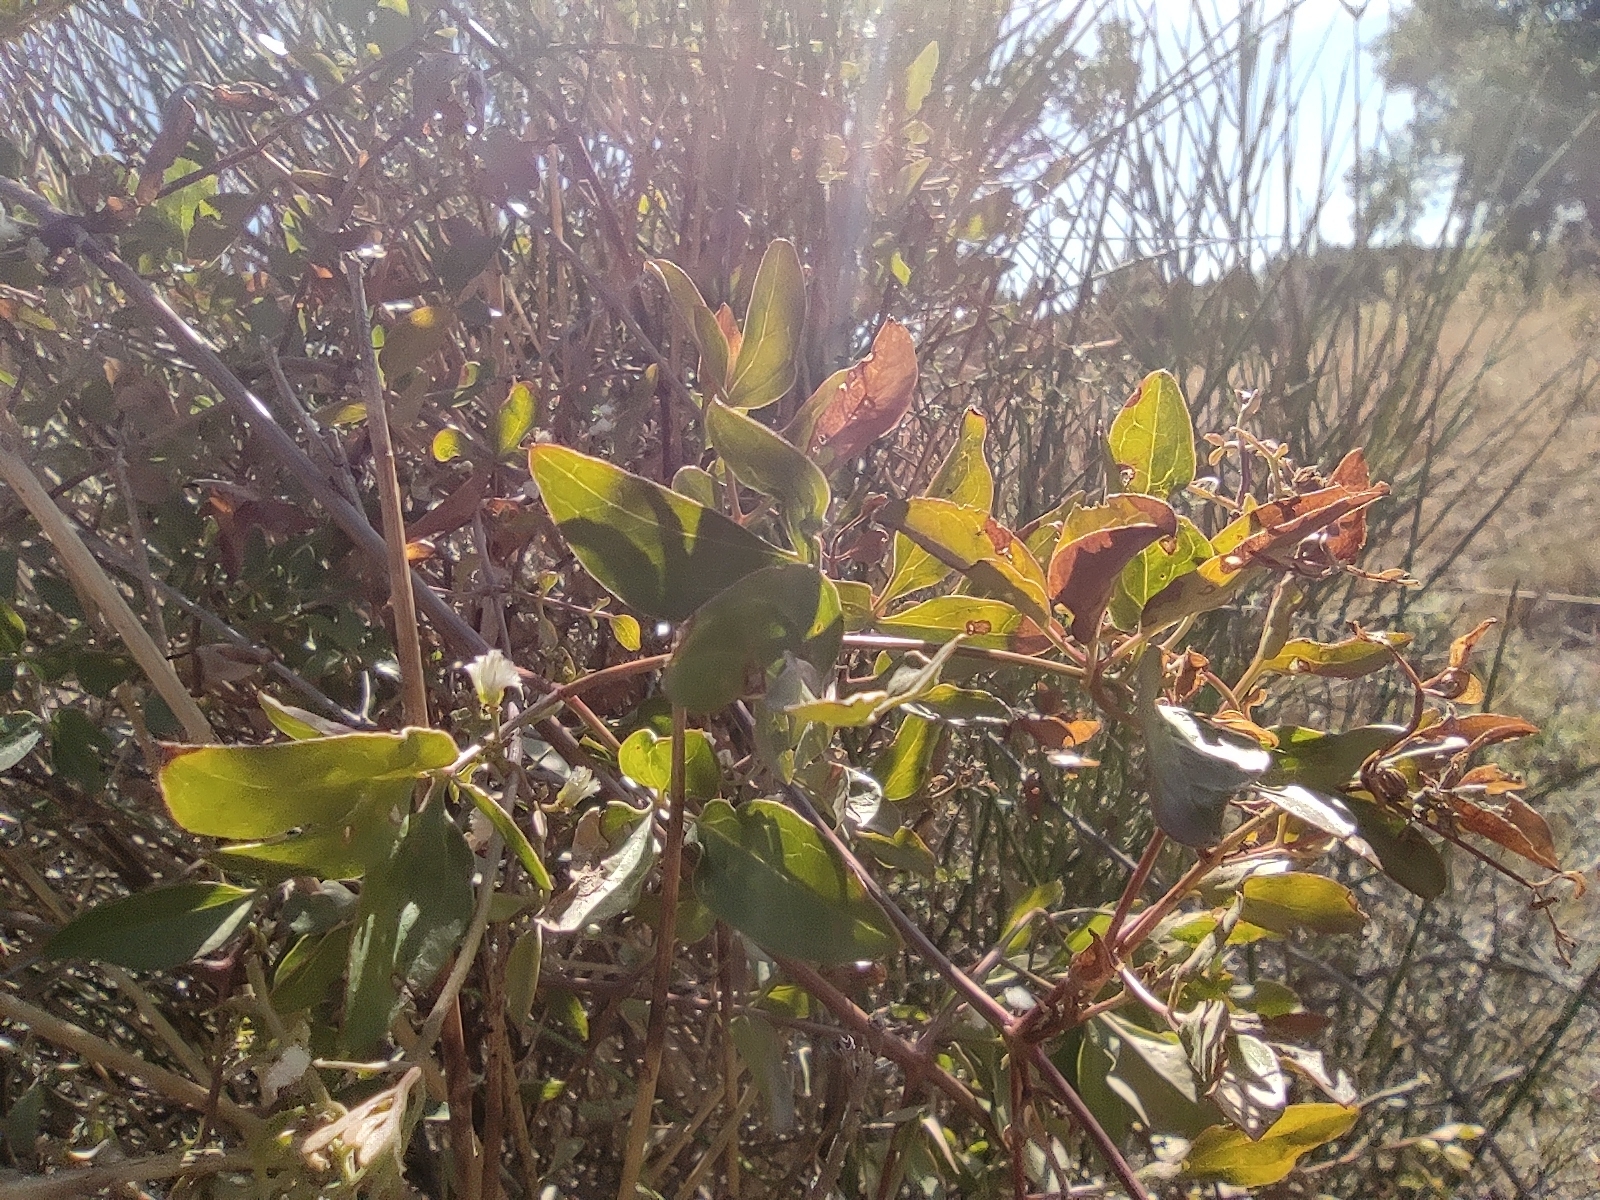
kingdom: Plantae
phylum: Tracheophyta
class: Magnoliopsida
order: Ranunculales
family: Ranunculaceae
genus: Clematis
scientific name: Clematis flammula
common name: Virgin's-bower
